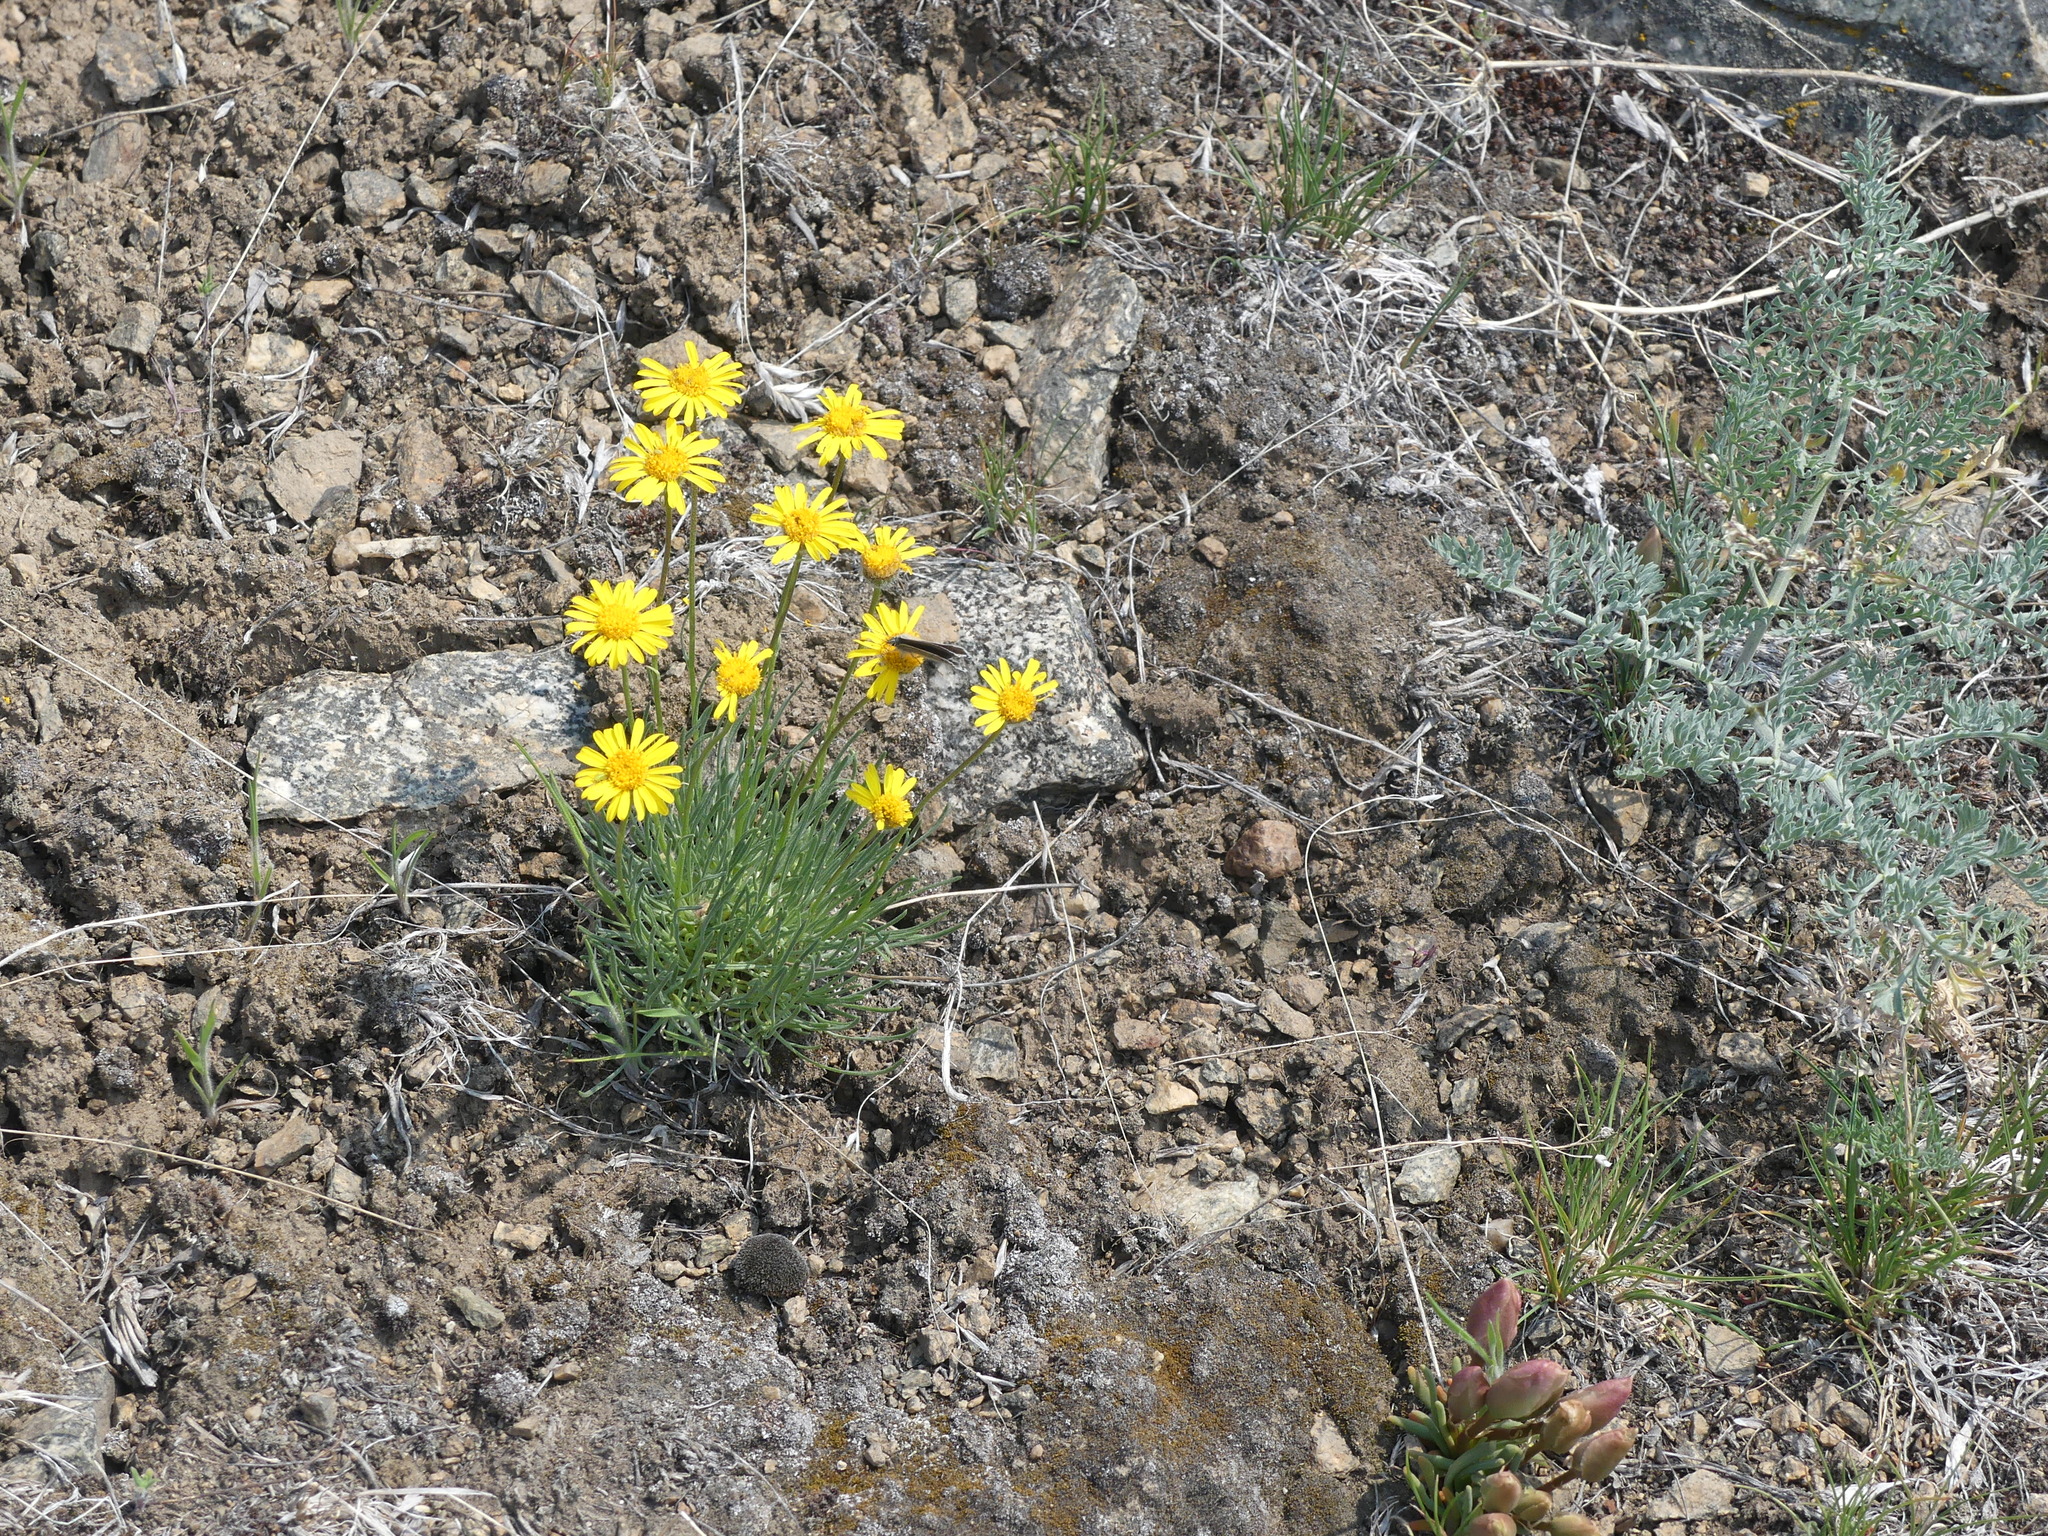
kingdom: Plantae
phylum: Tracheophyta
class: Magnoliopsida
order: Asterales
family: Asteraceae
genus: Erigeron
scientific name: Erigeron linearis
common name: Desert yellow fleabane
